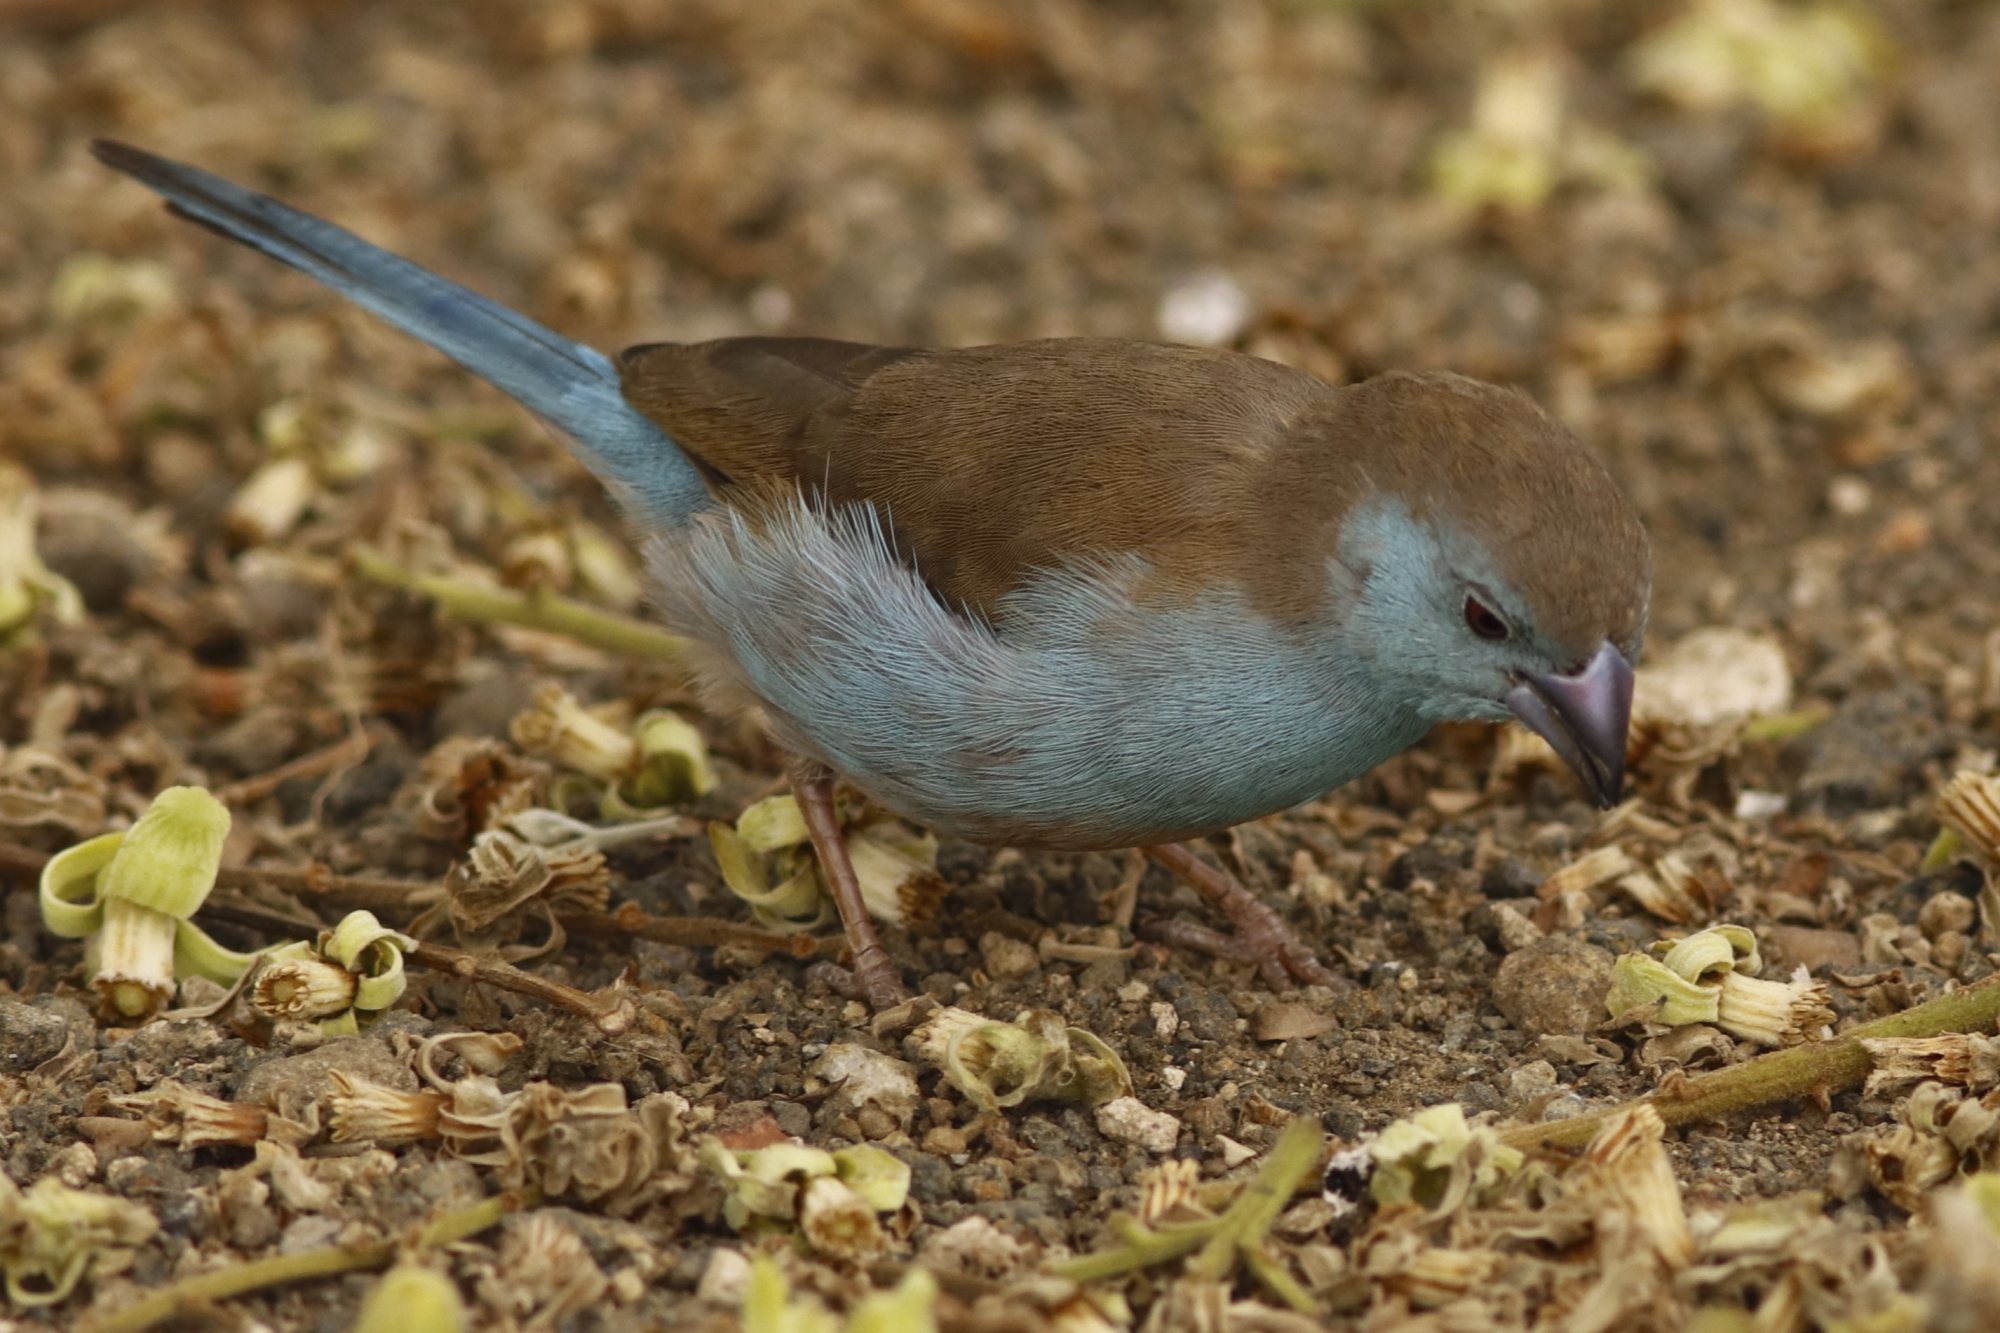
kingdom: Animalia
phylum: Chordata
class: Aves
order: Passeriformes
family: Estrildidae
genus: Uraeginthus
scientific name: Uraeginthus angolensis
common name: Blue waxbill
